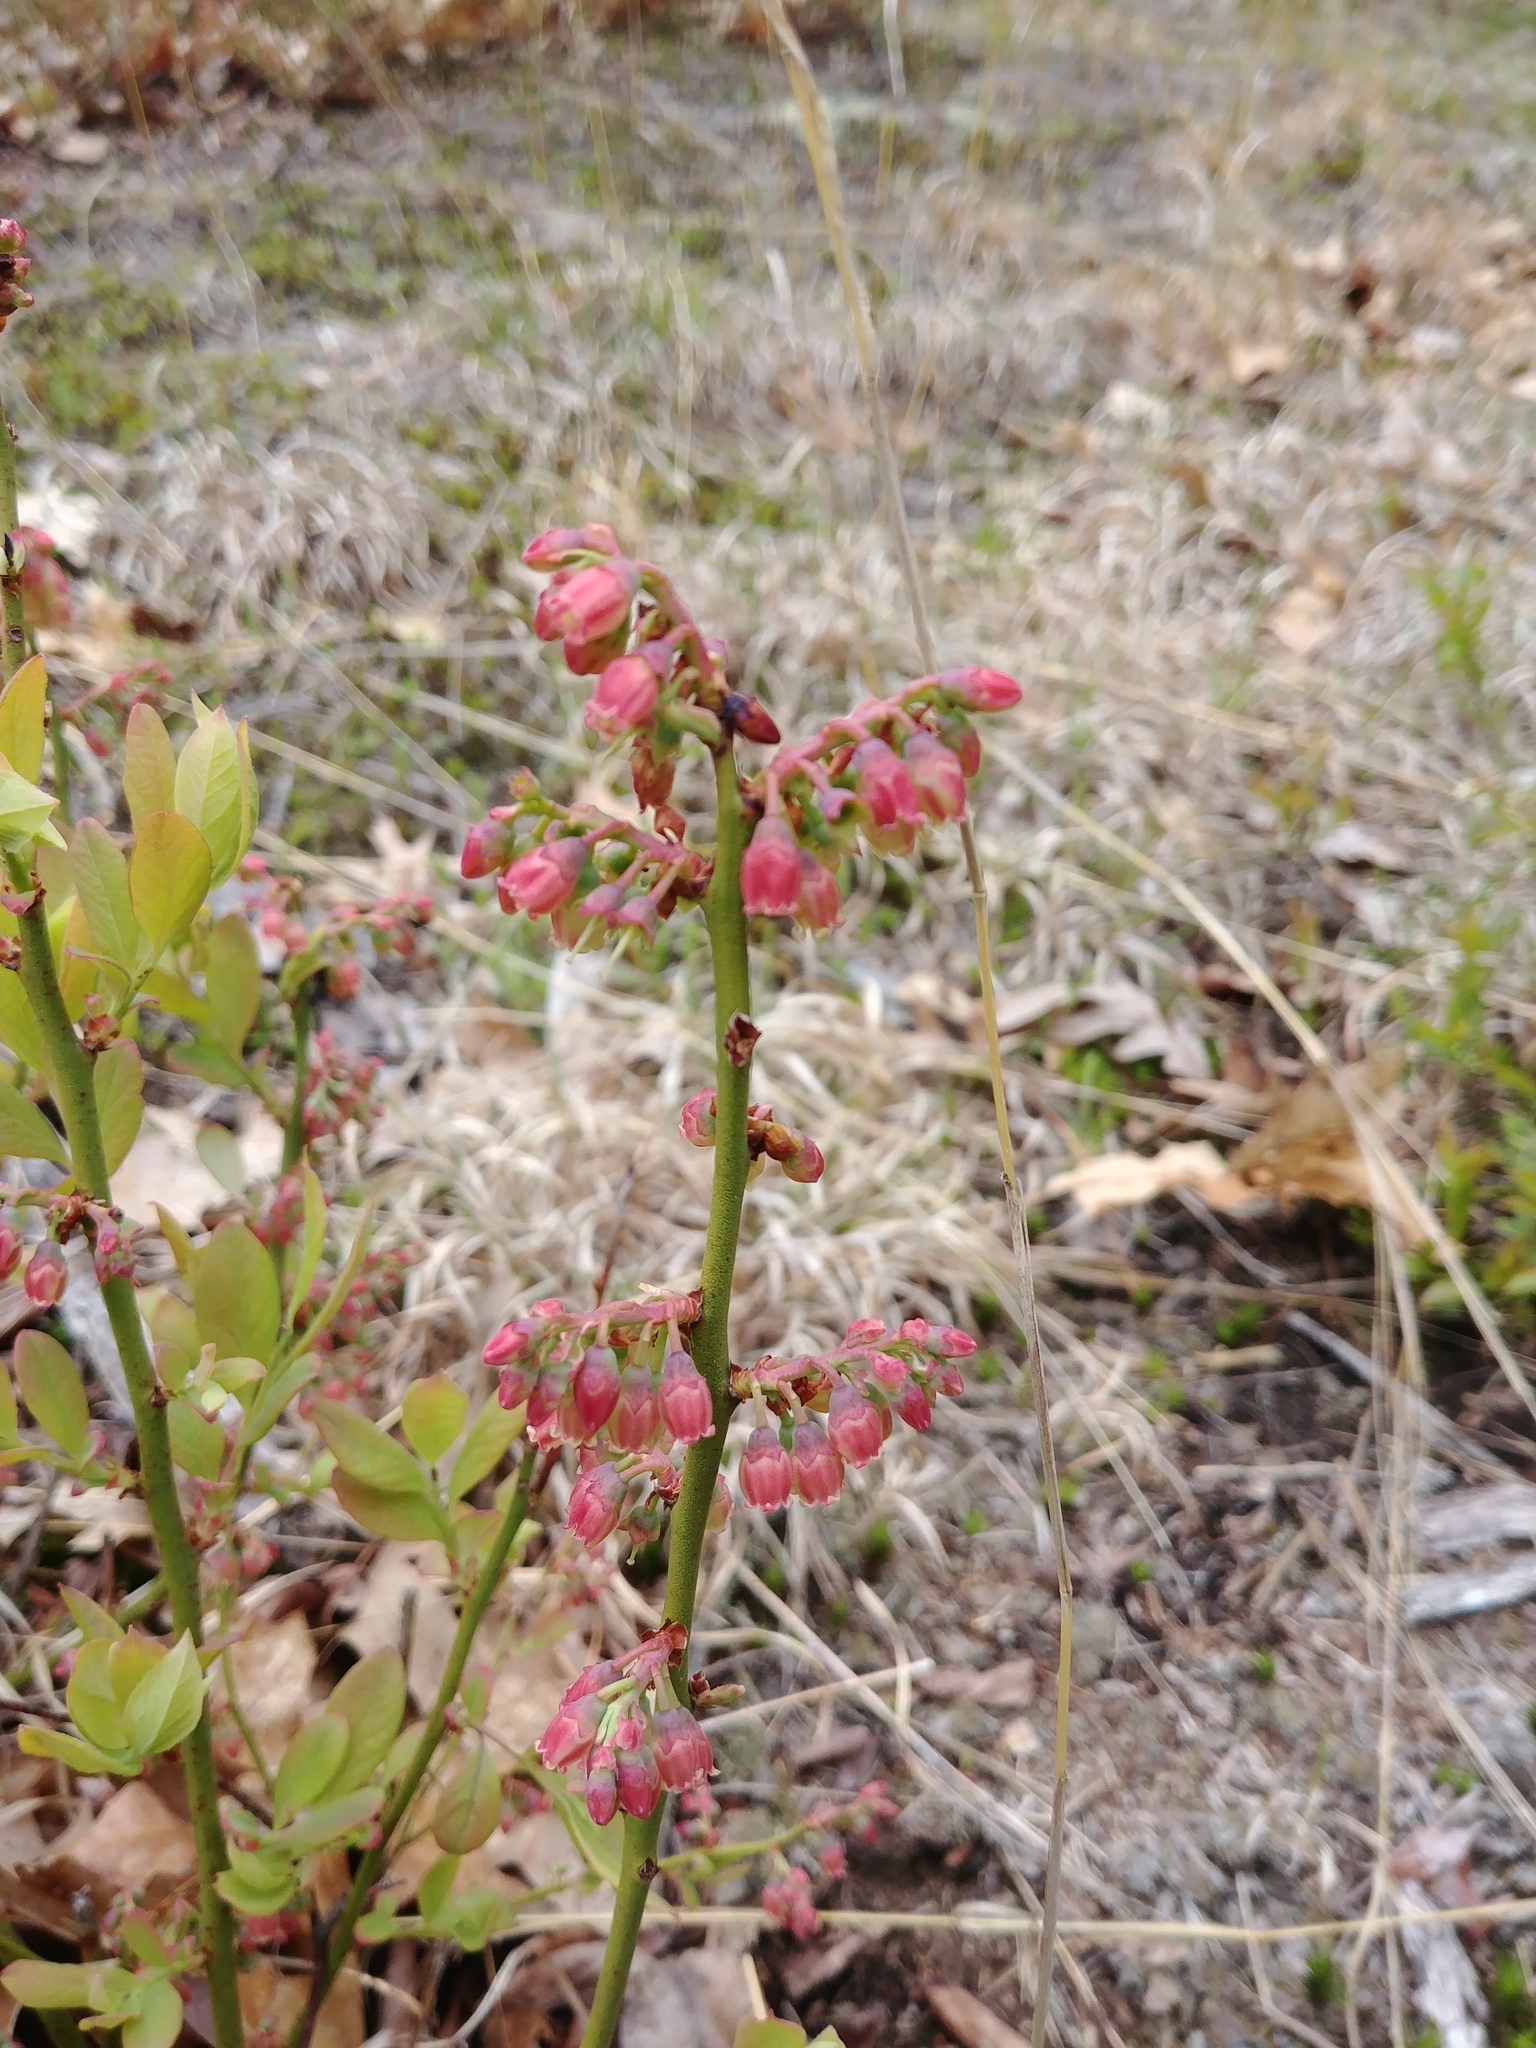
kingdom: Plantae
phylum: Tracheophyta
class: Magnoliopsida
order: Ericales
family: Ericaceae
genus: Gaylussacia
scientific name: Gaylussacia baccata
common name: Black huckleberry
